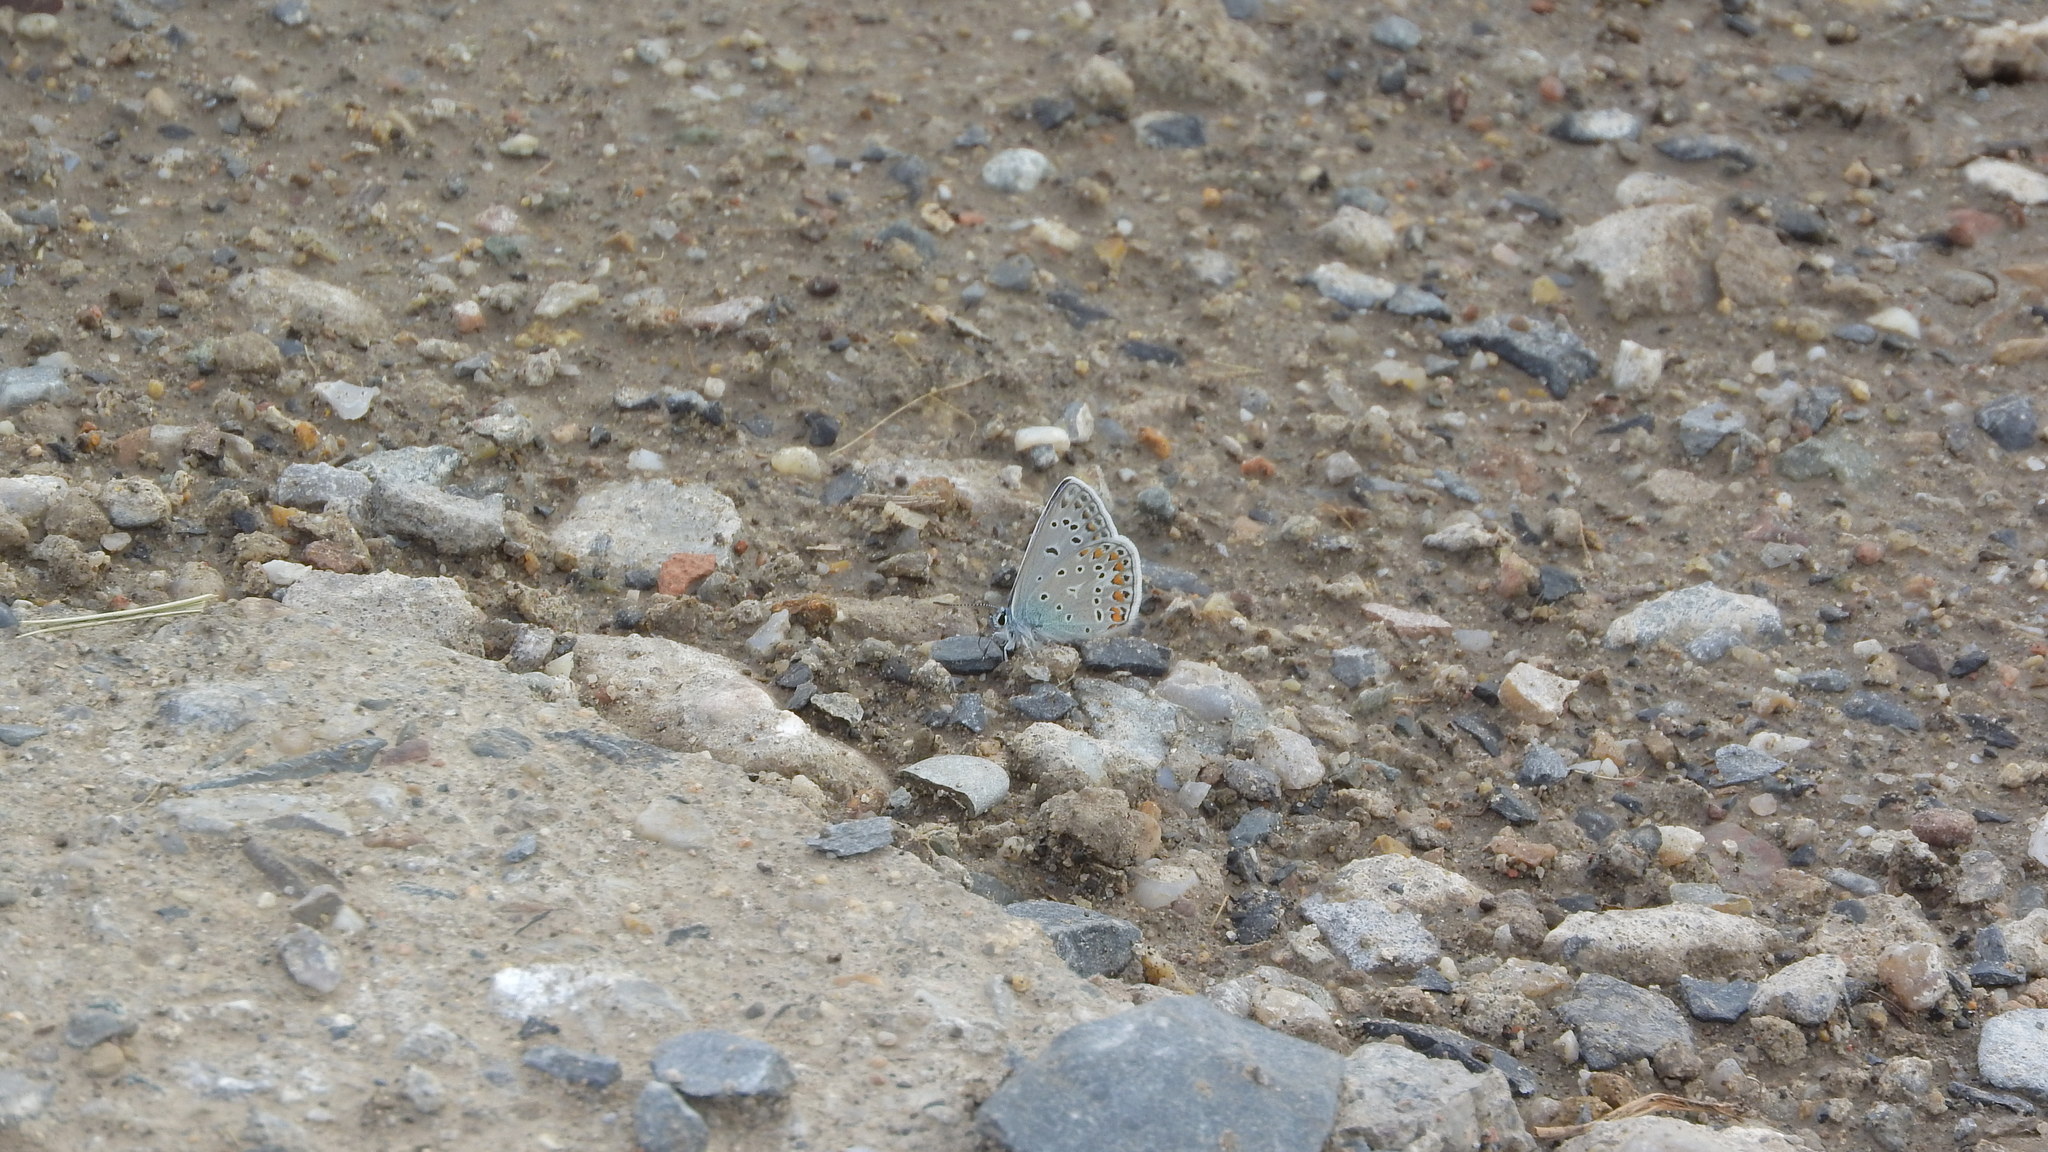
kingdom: Animalia
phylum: Arthropoda
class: Insecta
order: Lepidoptera
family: Lycaenidae
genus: Polyommatus
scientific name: Polyommatus icarus
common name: Common blue
